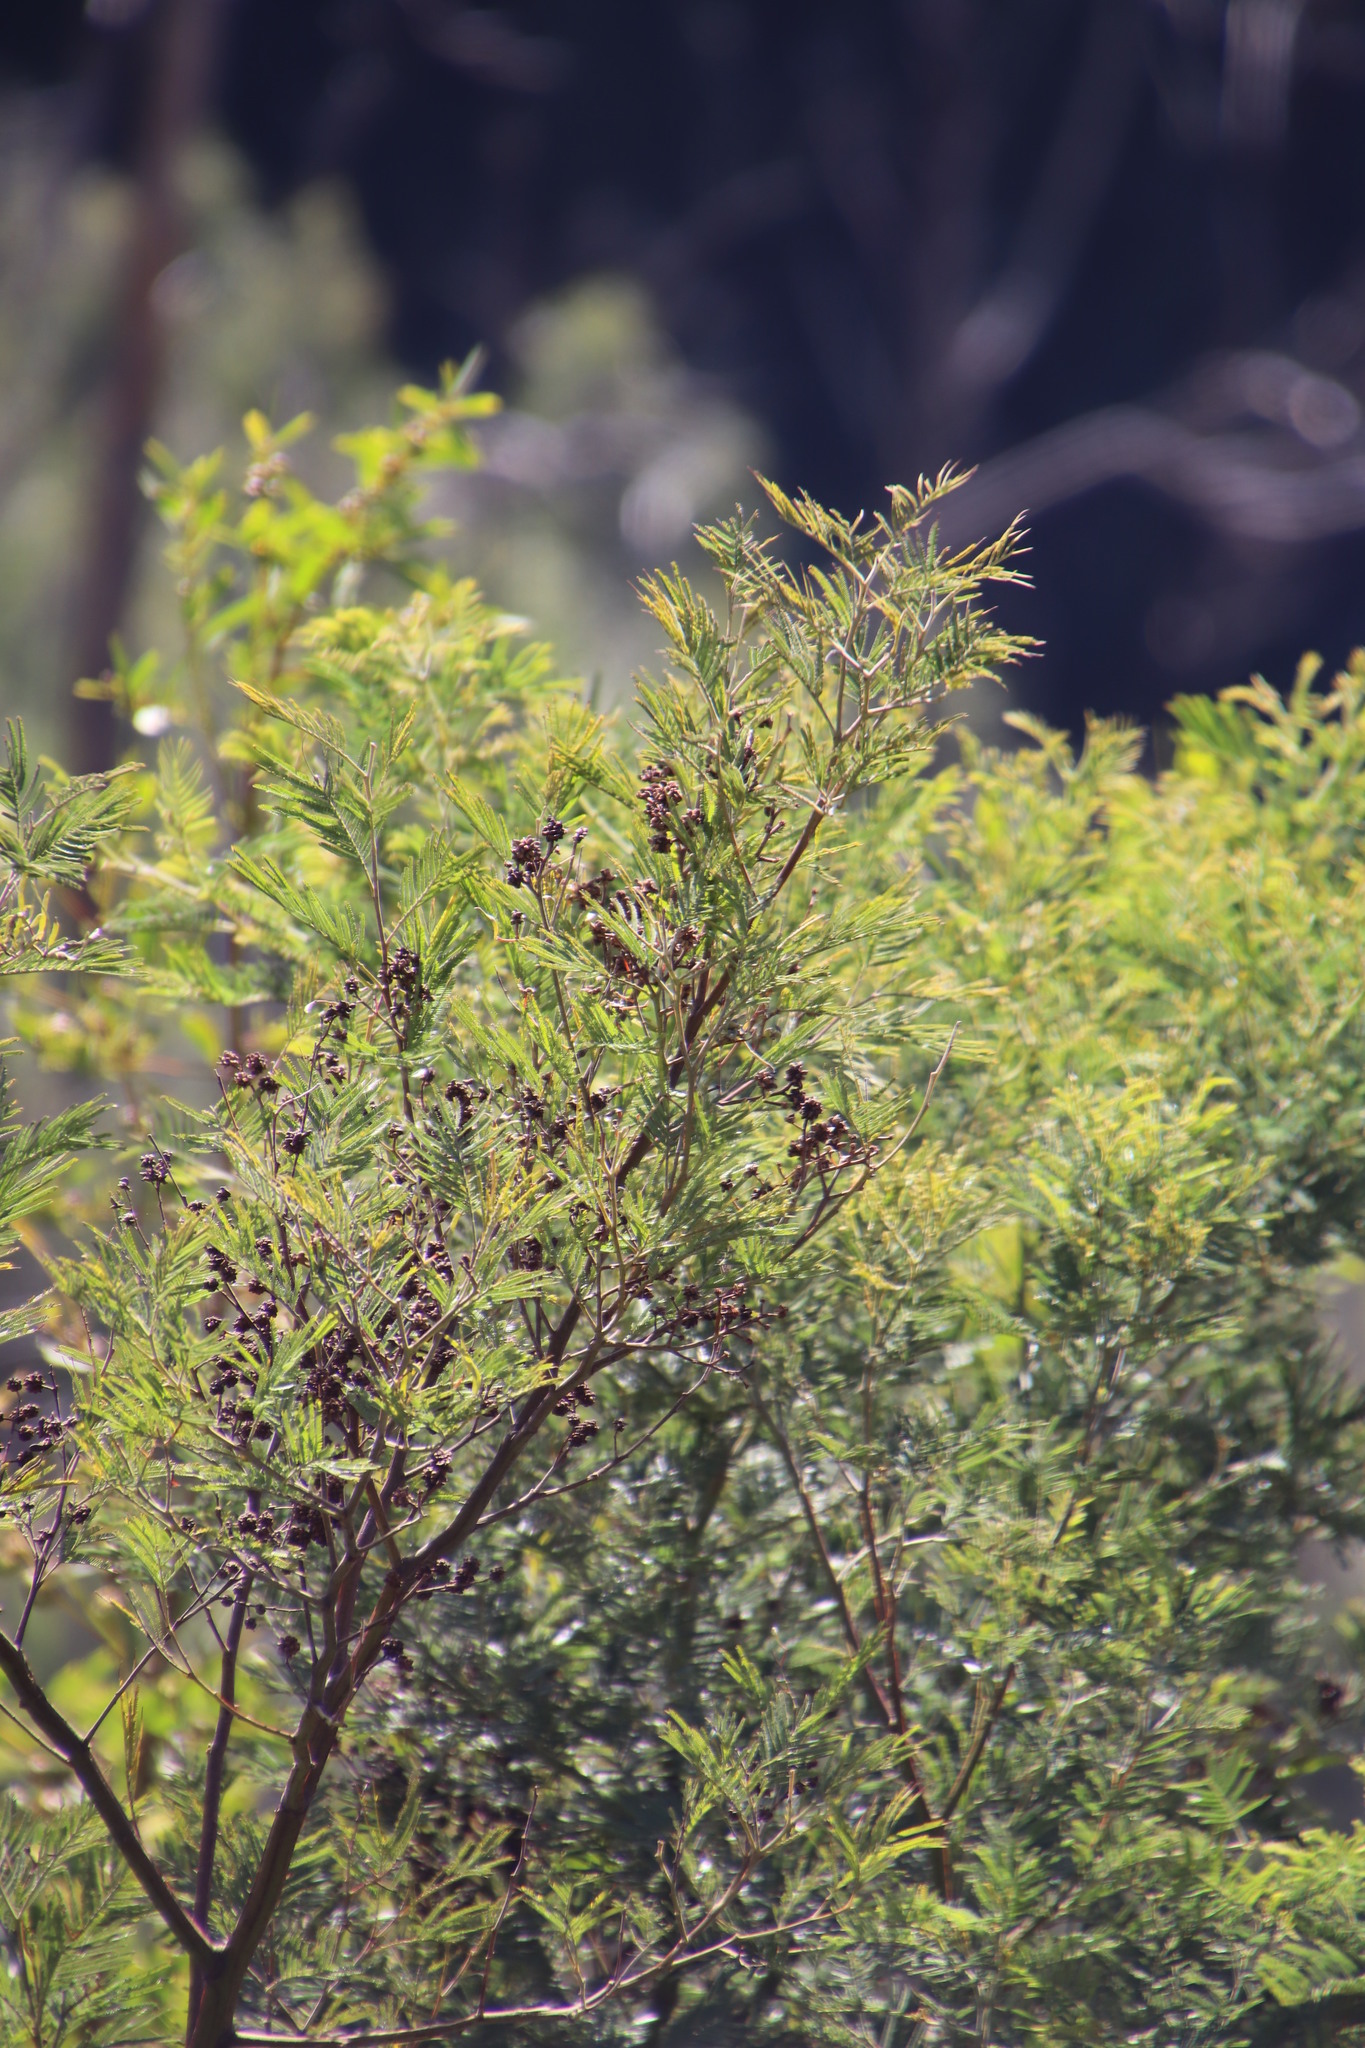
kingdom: Plantae
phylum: Tracheophyta
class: Magnoliopsida
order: Fabales
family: Fabaceae
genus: Acacia
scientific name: Acacia mearnsii
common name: Black wattle
